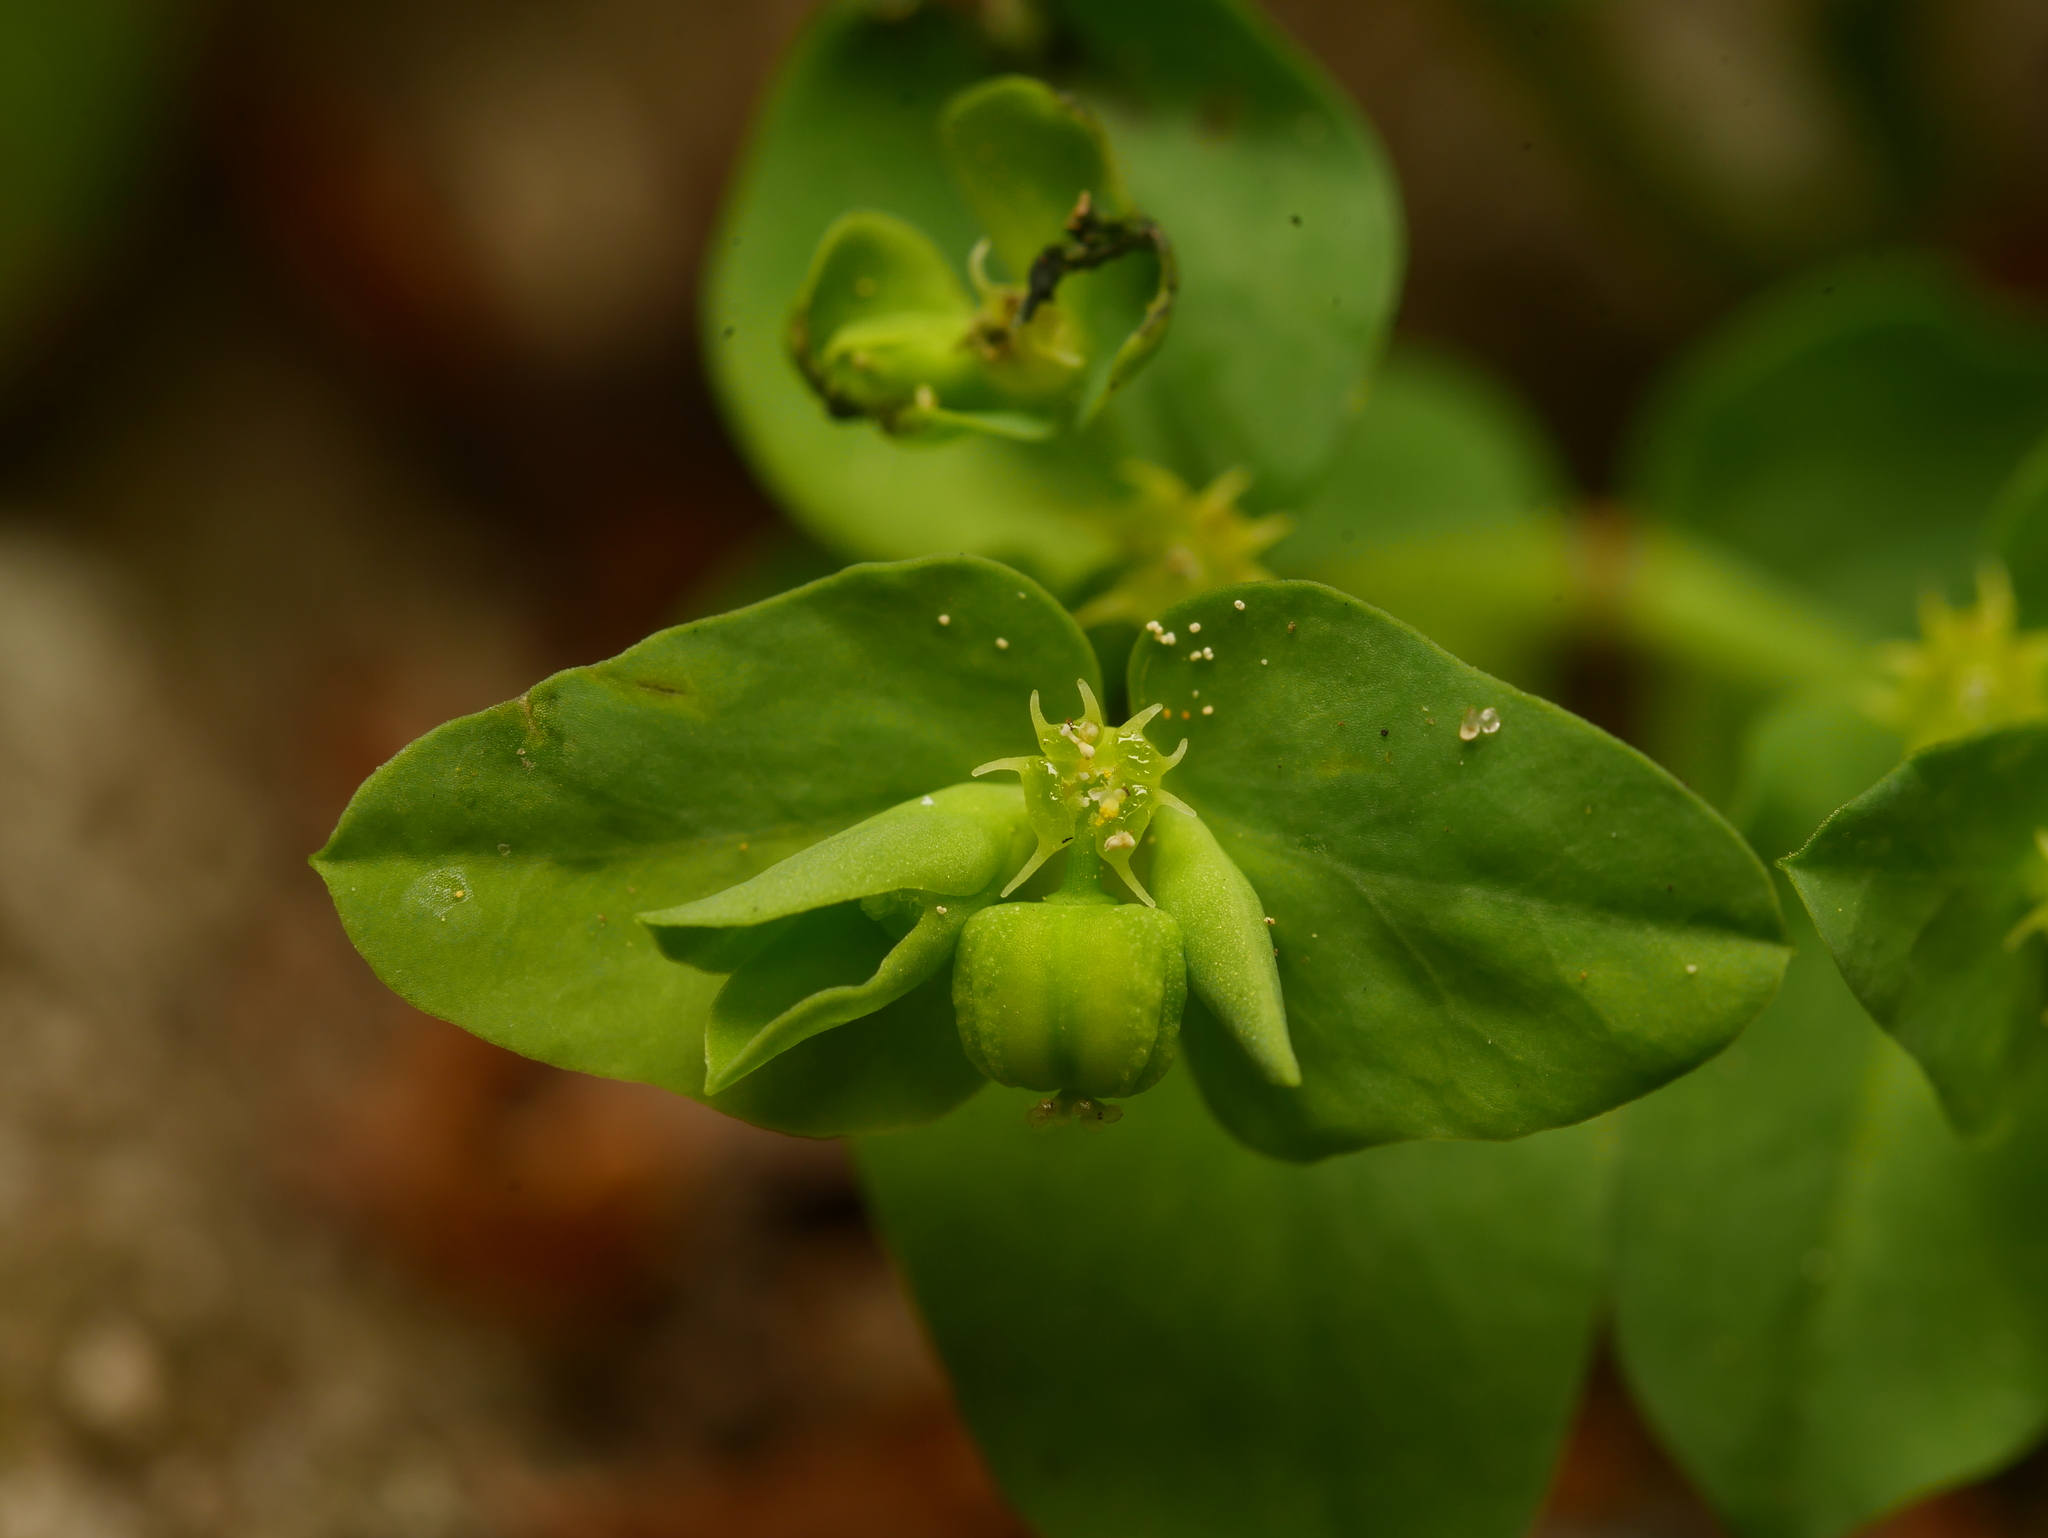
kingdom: Plantae
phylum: Tracheophyta
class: Magnoliopsida
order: Malpighiales
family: Euphorbiaceae
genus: Euphorbia
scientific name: Euphorbia peplus
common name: Petty spurge
